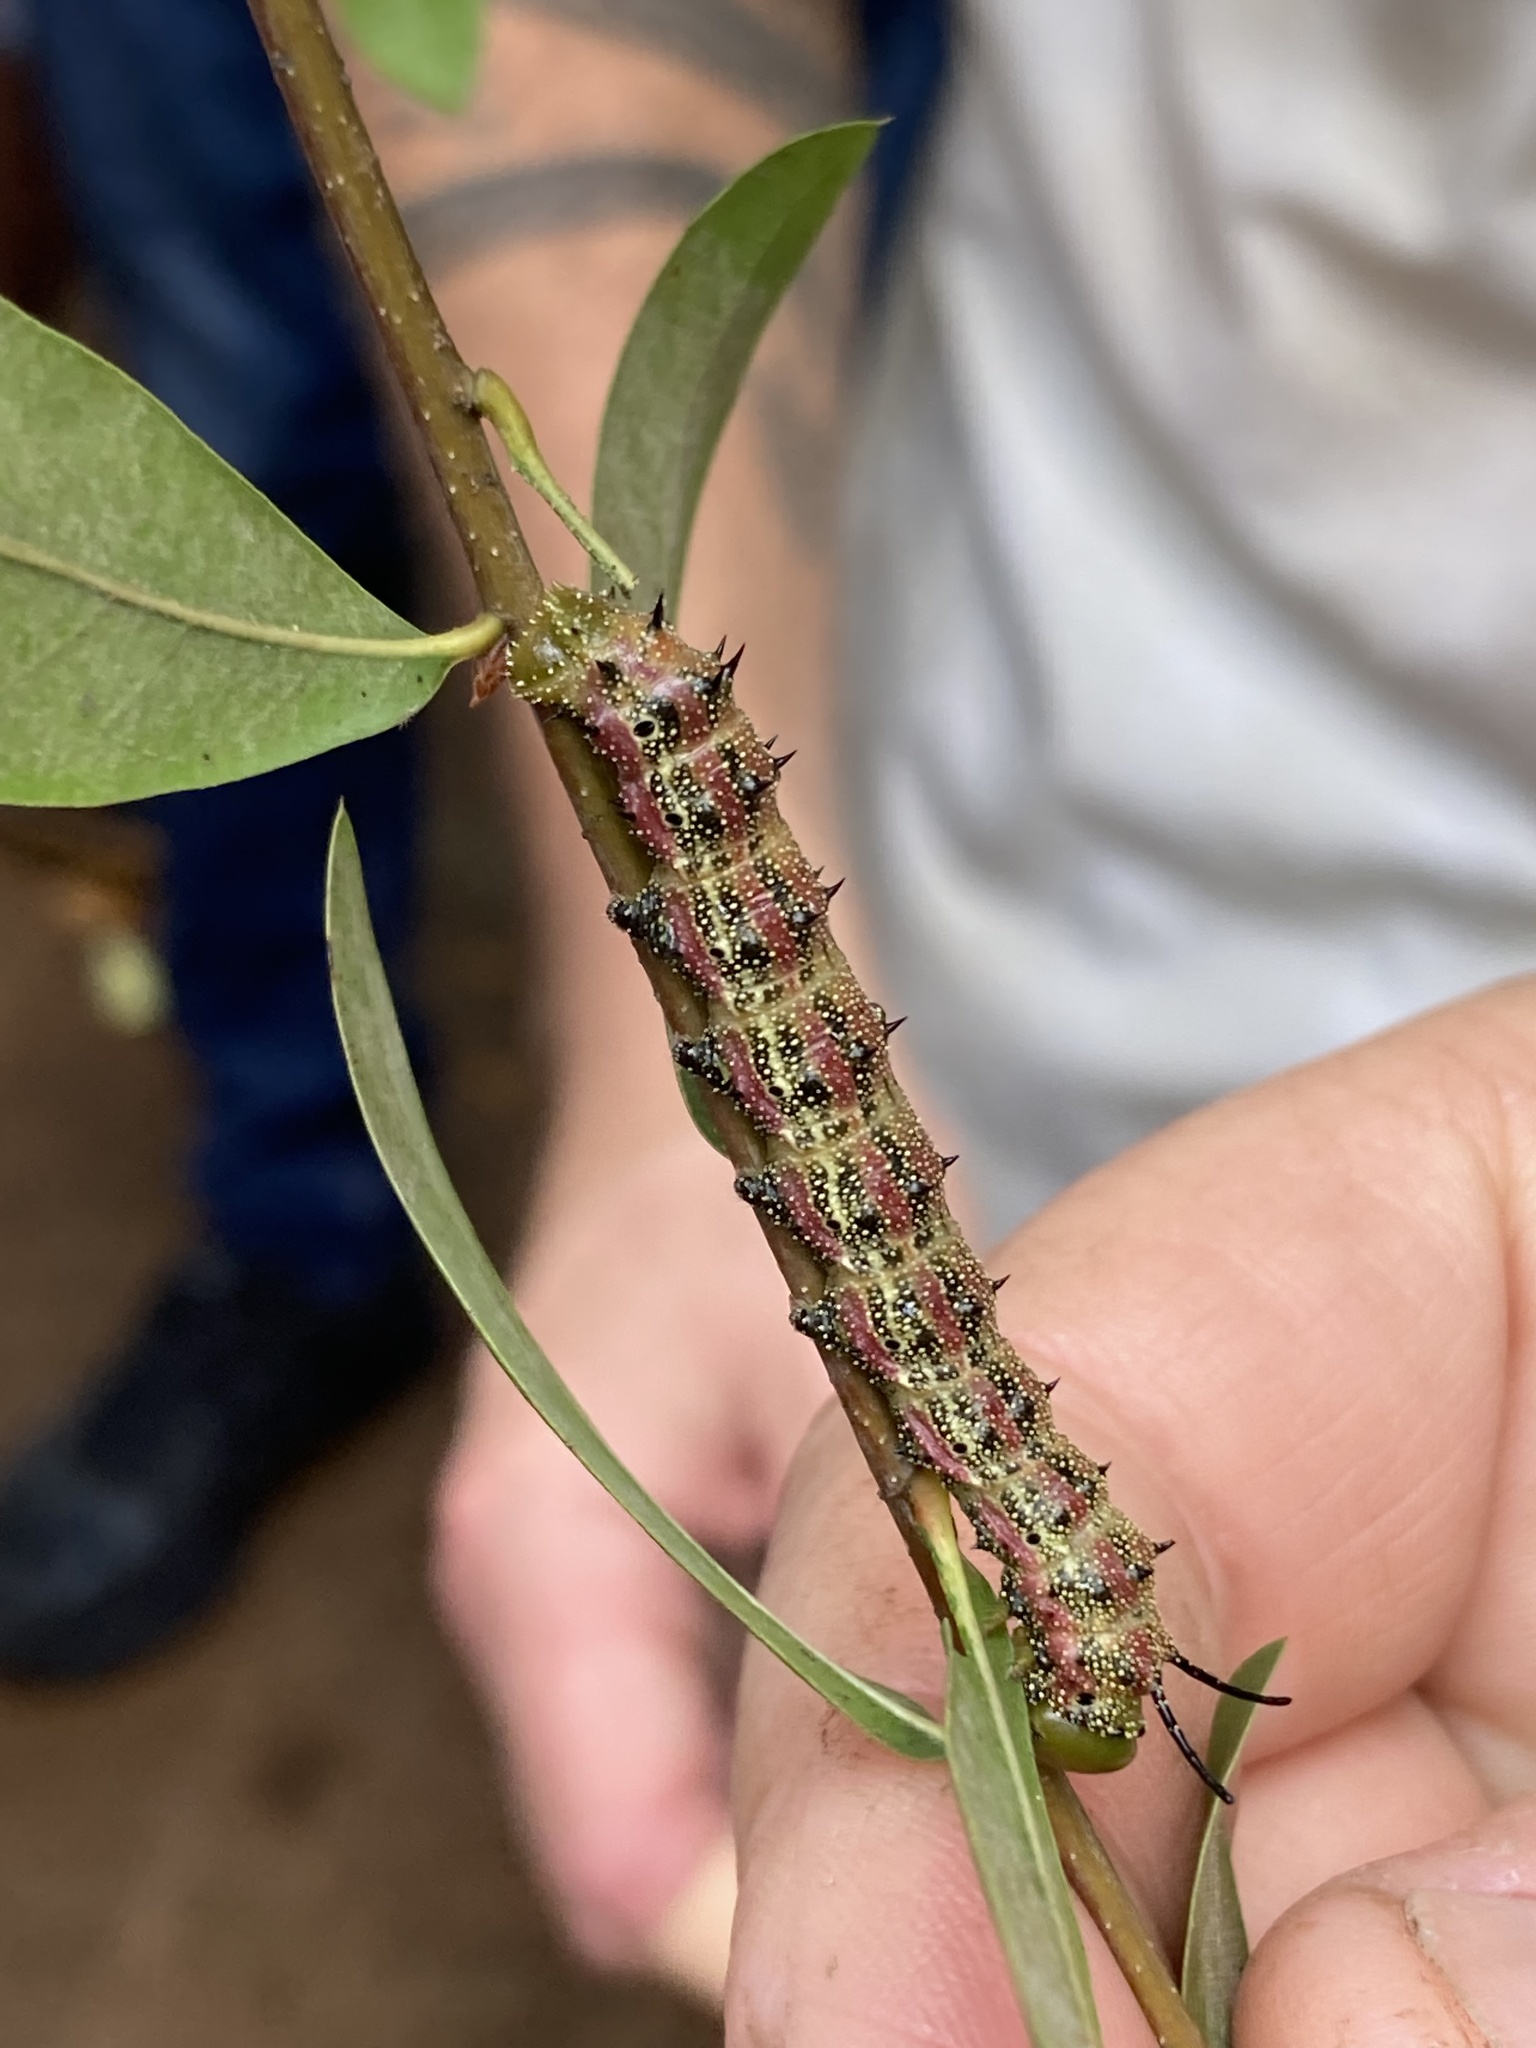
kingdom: Animalia
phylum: Arthropoda
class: Insecta
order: Lepidoptera
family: Saturniidae
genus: Anisota
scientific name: Anisota virginiensis
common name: Pink striped oakworm moth
